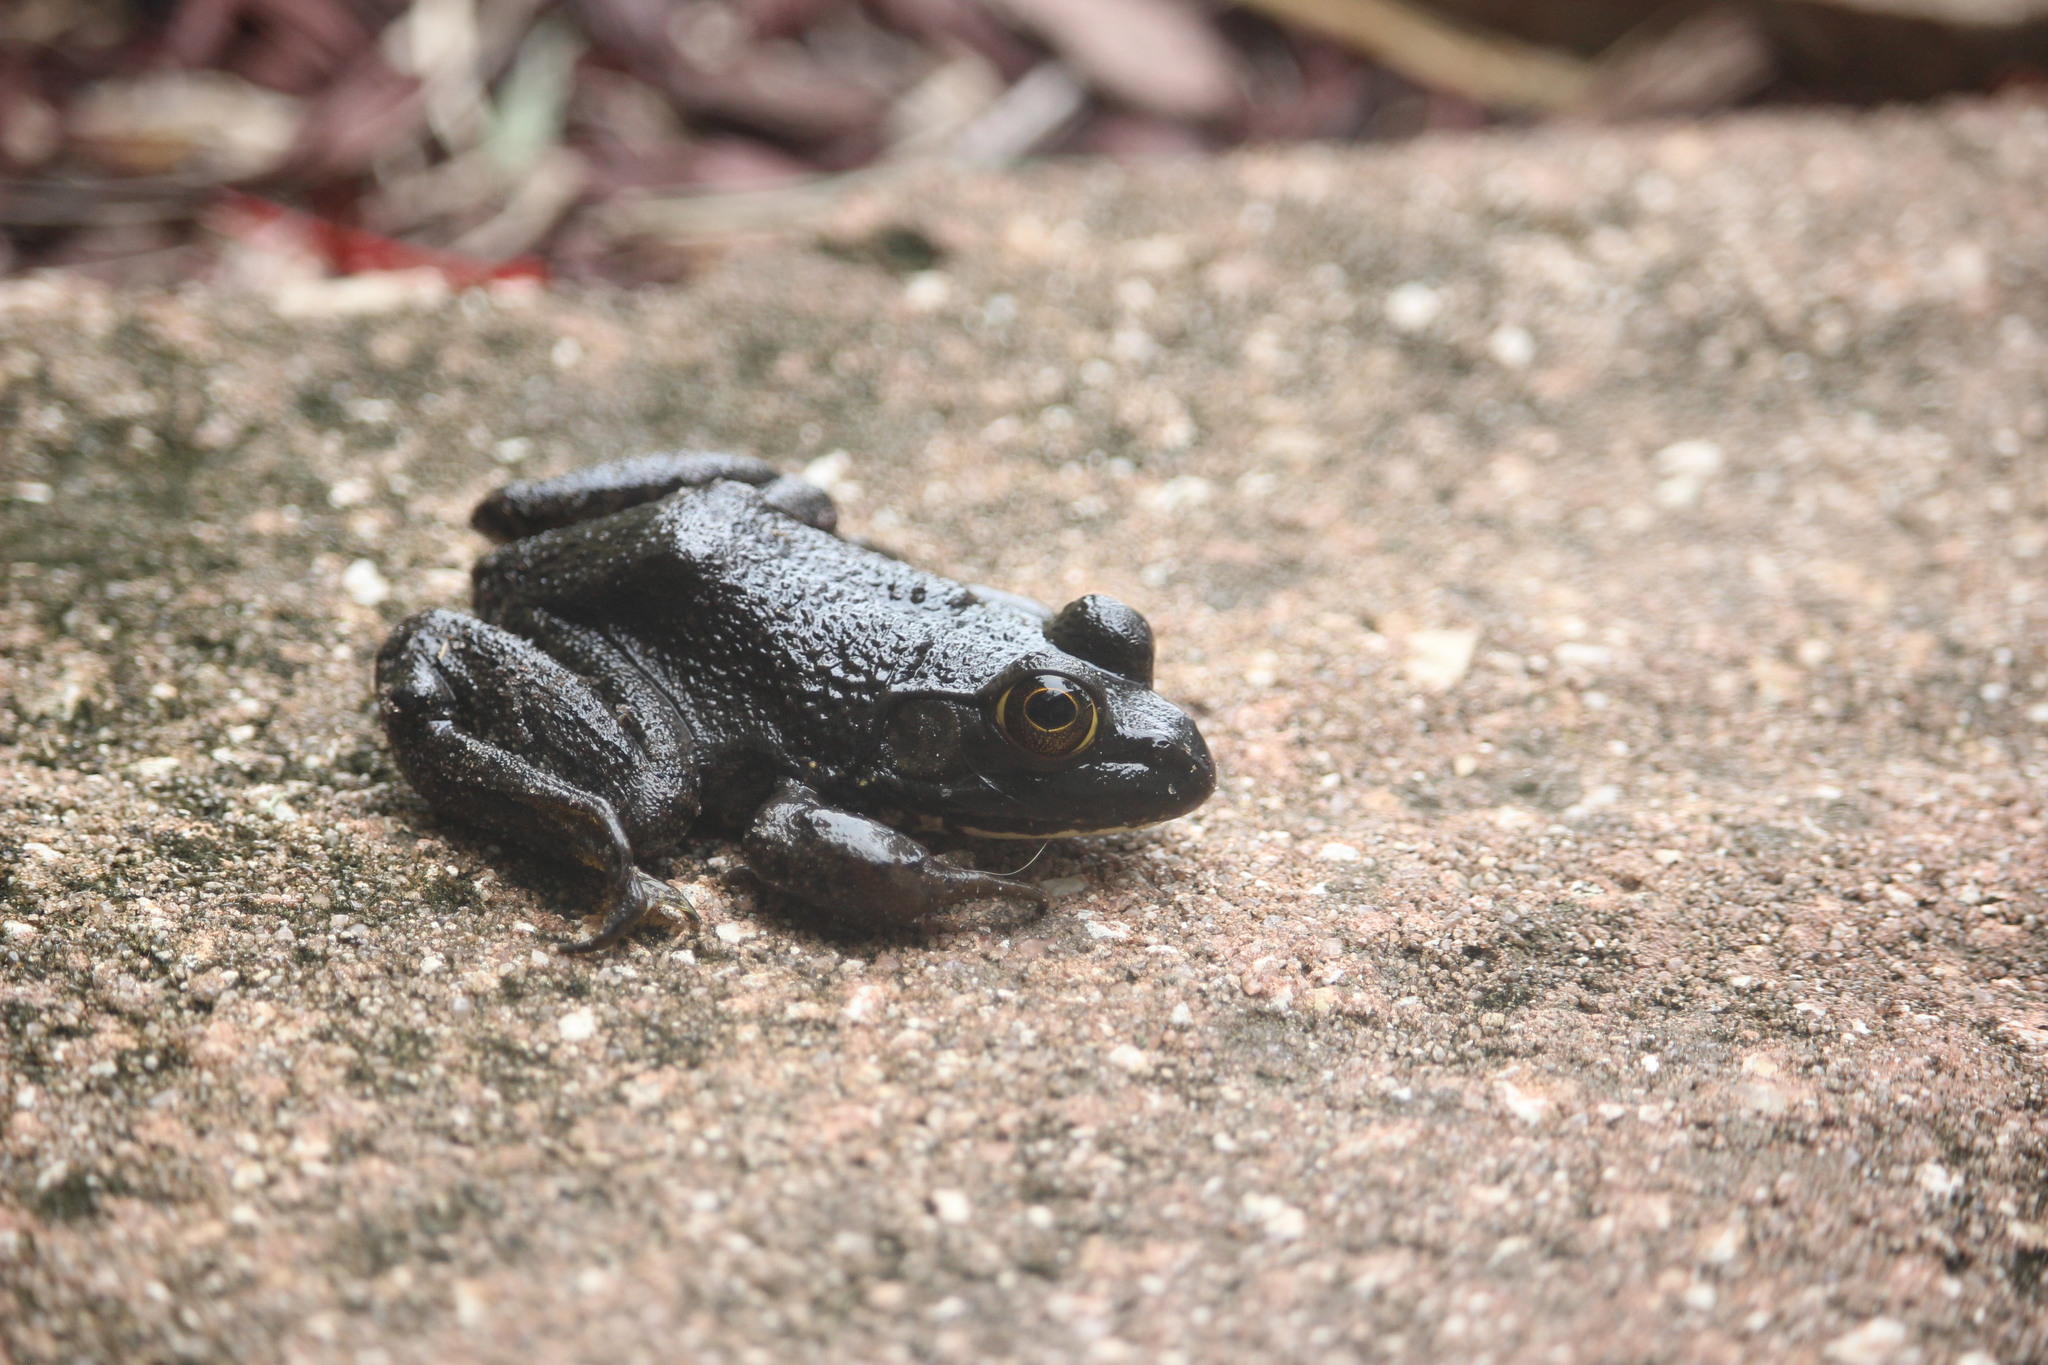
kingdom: Animalia
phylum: Chordata
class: Amphibia
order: Anura
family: Ranidae
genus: Lithobates
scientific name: Lithobates catesbeianus
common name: American bullfrog
